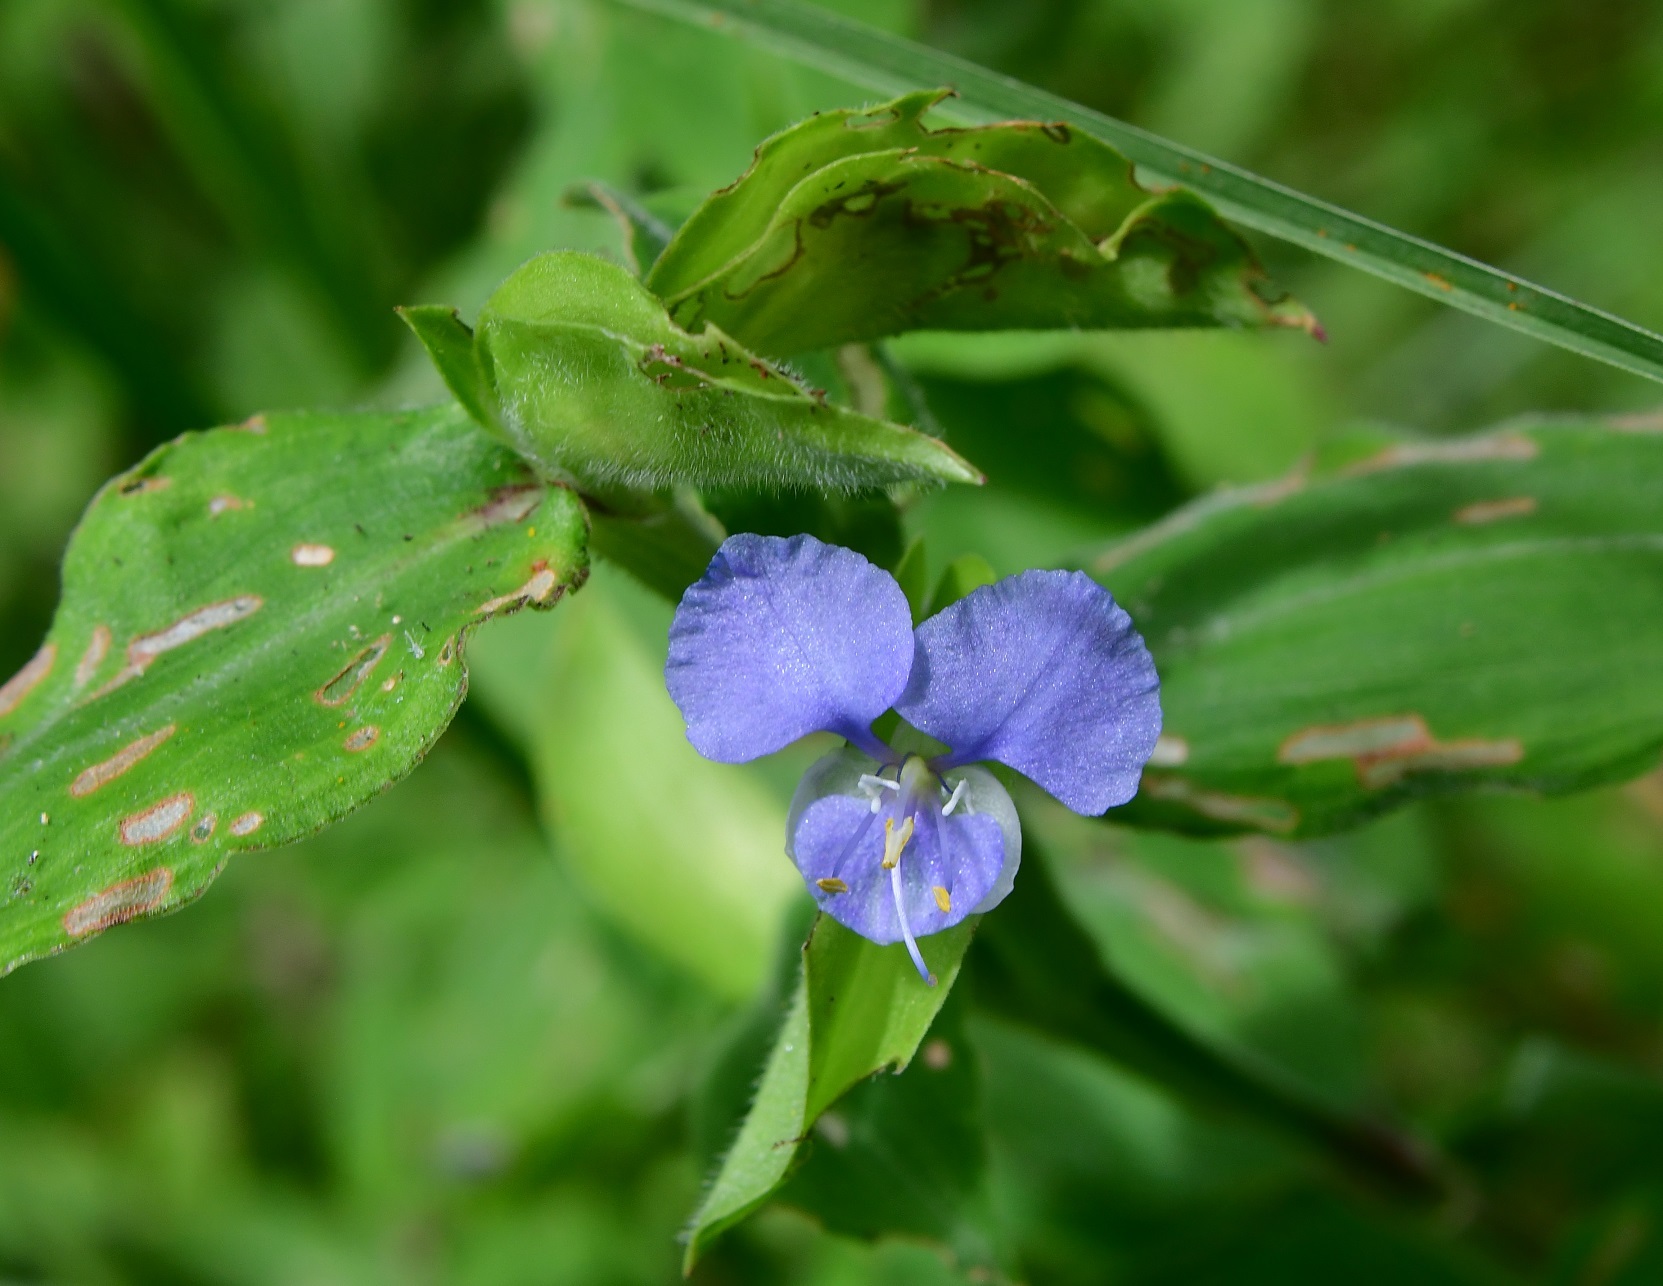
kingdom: Plantae
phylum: Tracheophyta
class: Liliopsida
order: Commelinales
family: Commelinaceae
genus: Commelina
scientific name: Commelina diffusa
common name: Climbing dayflower
